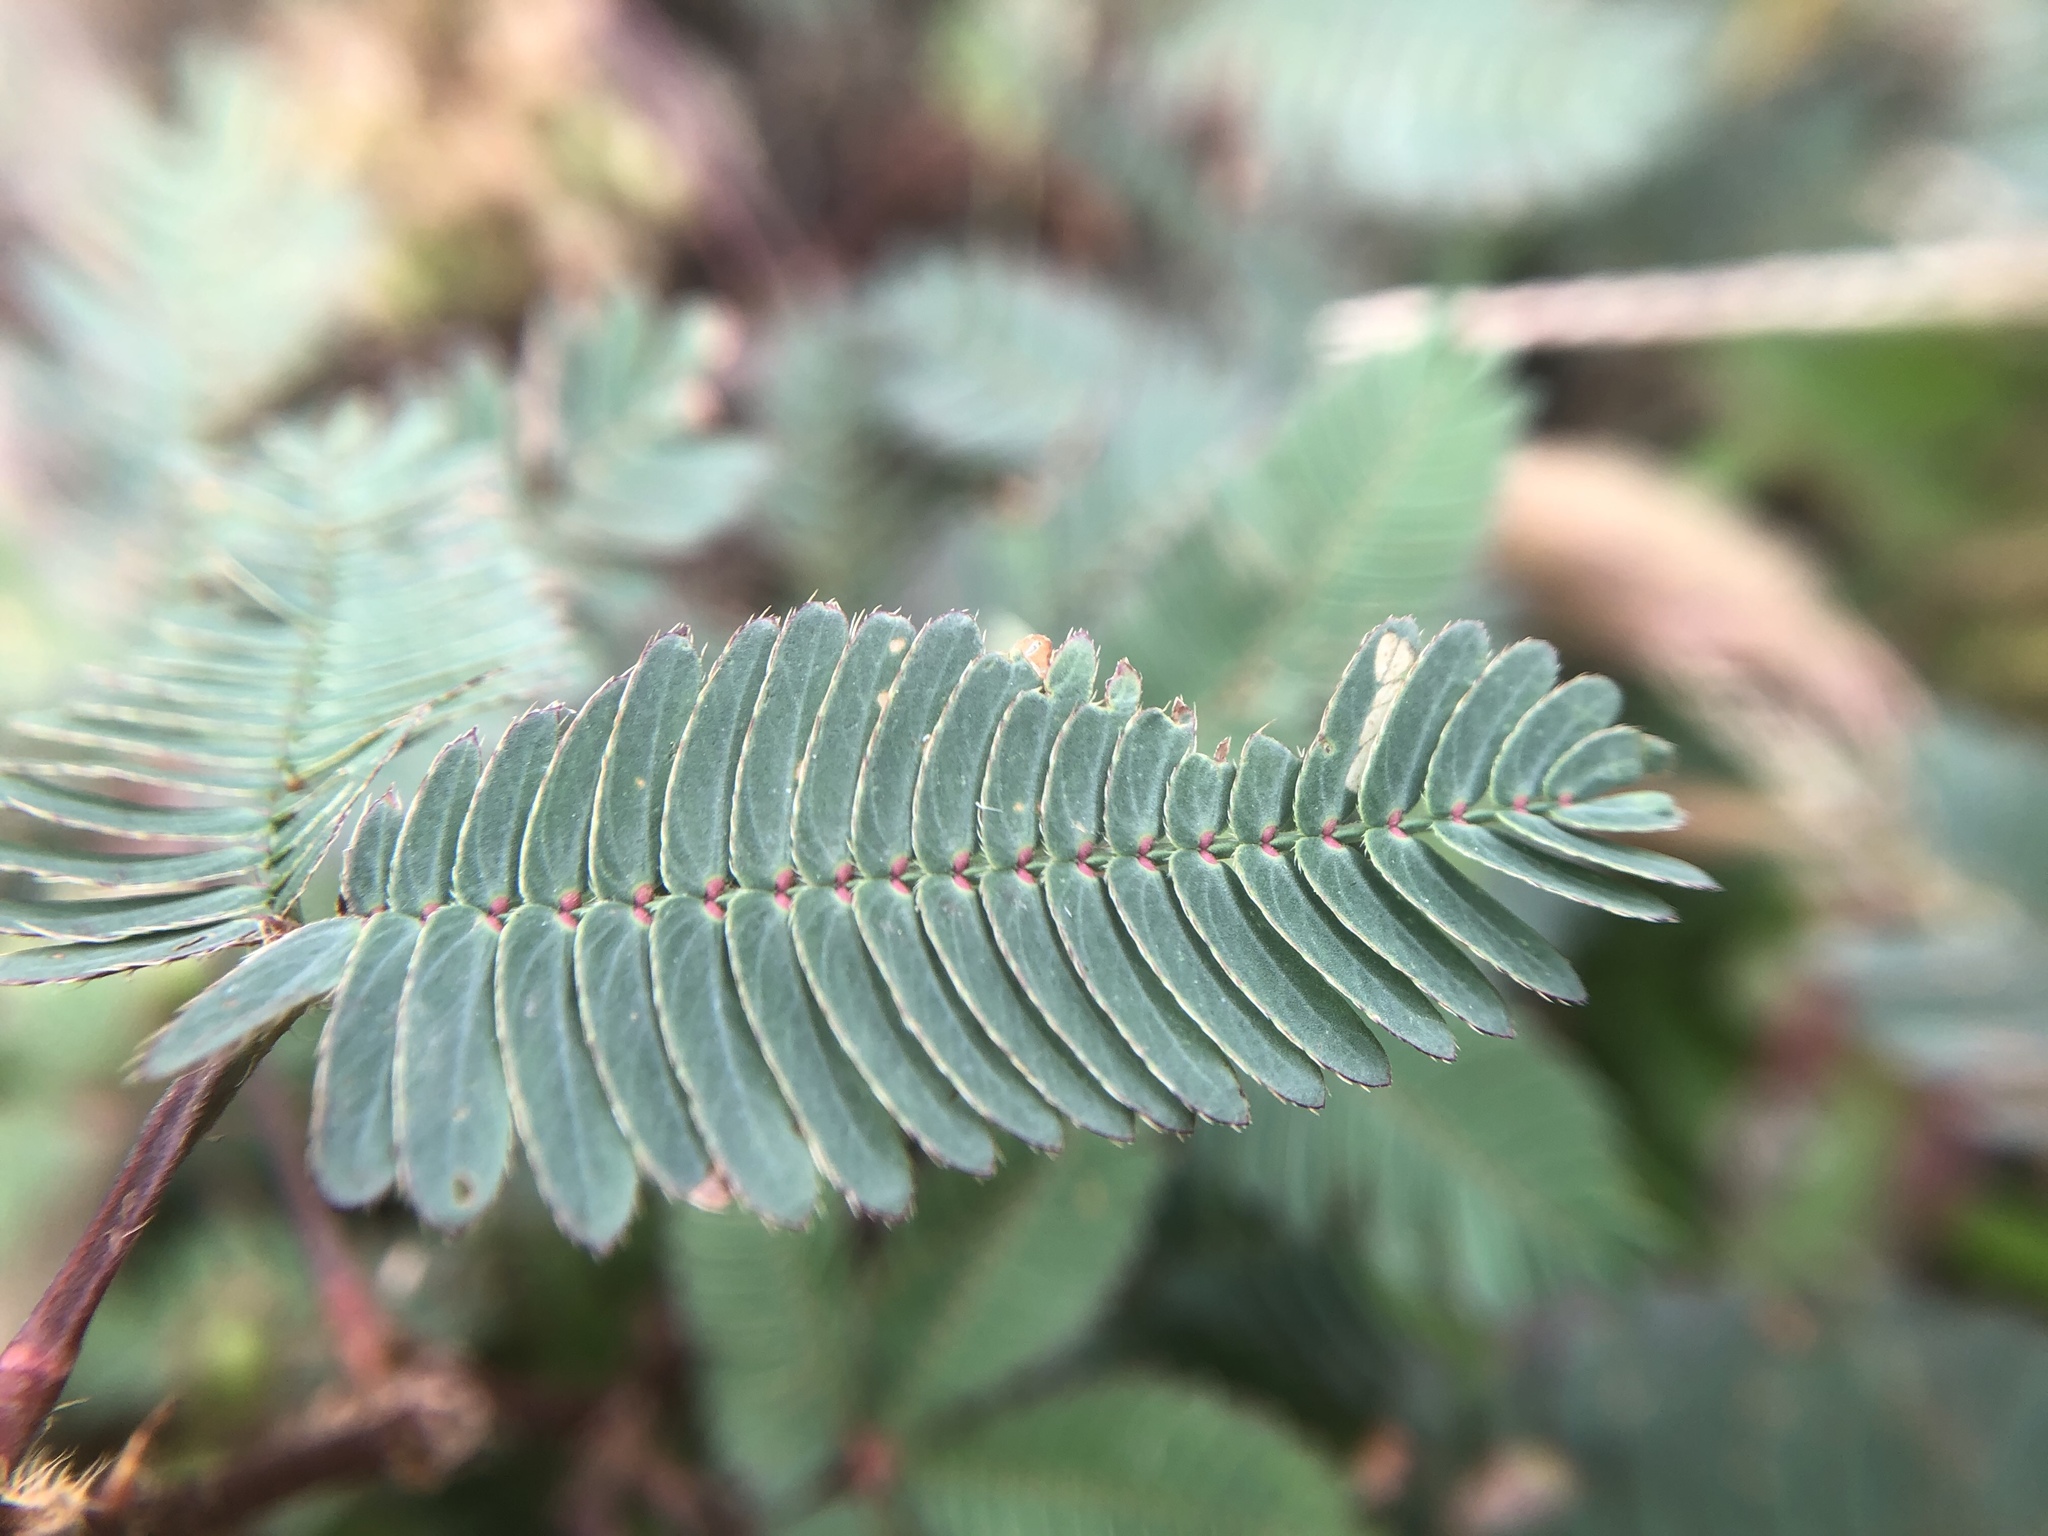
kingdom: Plantae
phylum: Tracheophyta
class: Magnoliopsida
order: Fabales
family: Fabaceae
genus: Mimosa
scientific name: Mimosa pudica
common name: Sensitive plant
